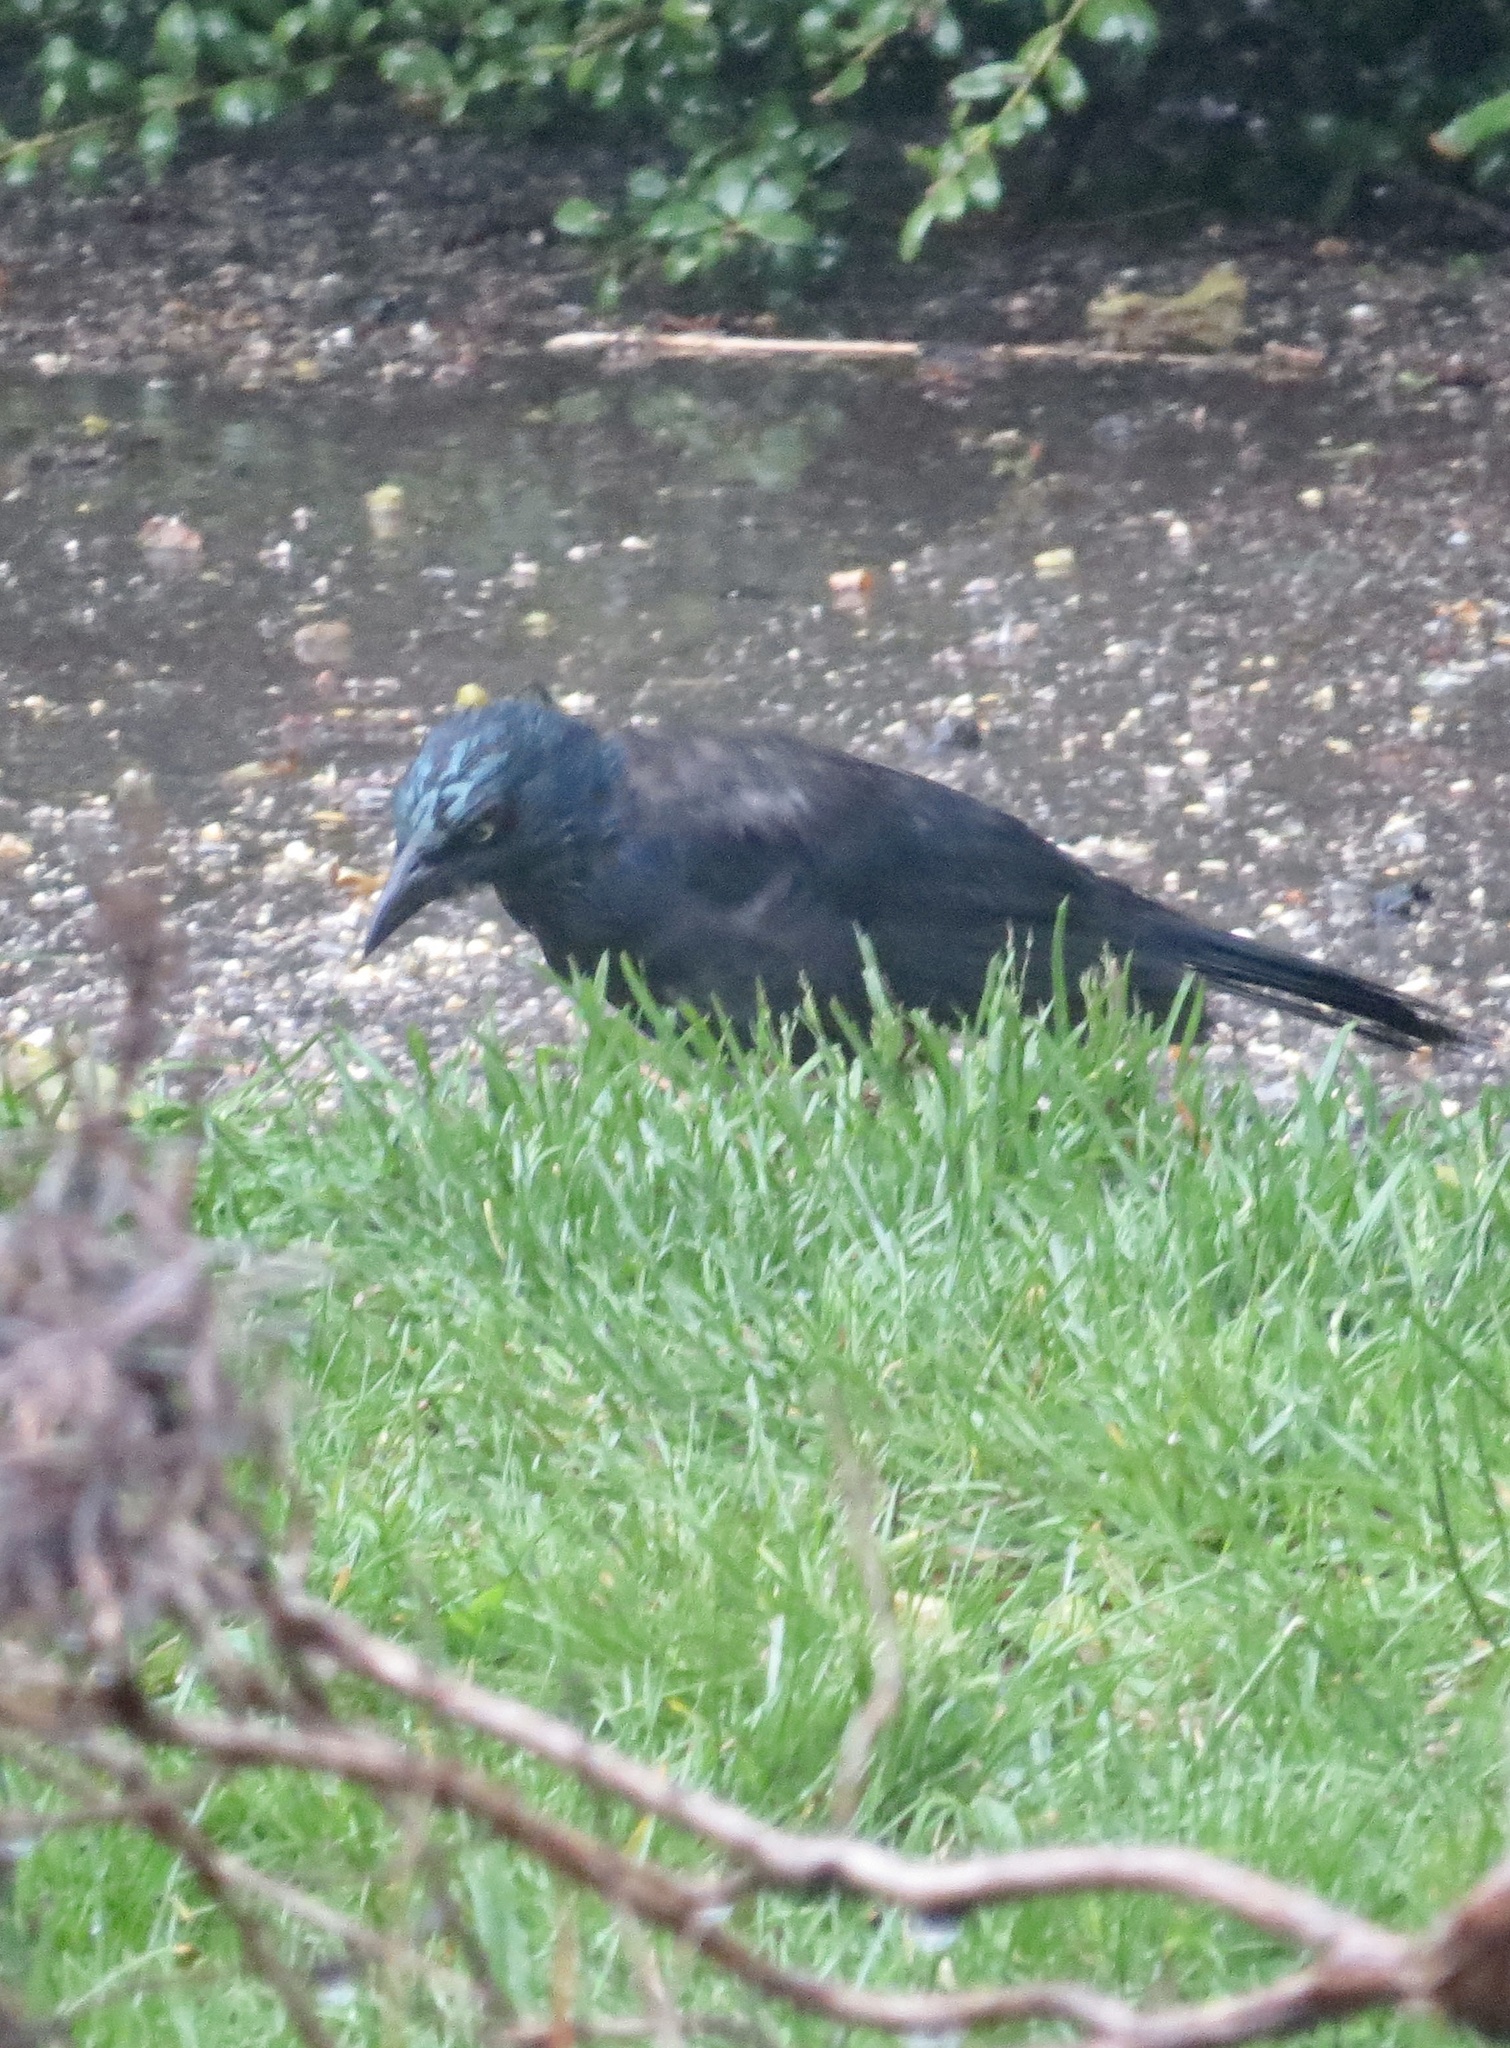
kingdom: Animalia
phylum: Chordata
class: Aves
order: Passeriformes
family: Icteridae
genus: Quiscalus
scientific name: Quiscalus quiscula
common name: Common grackle
